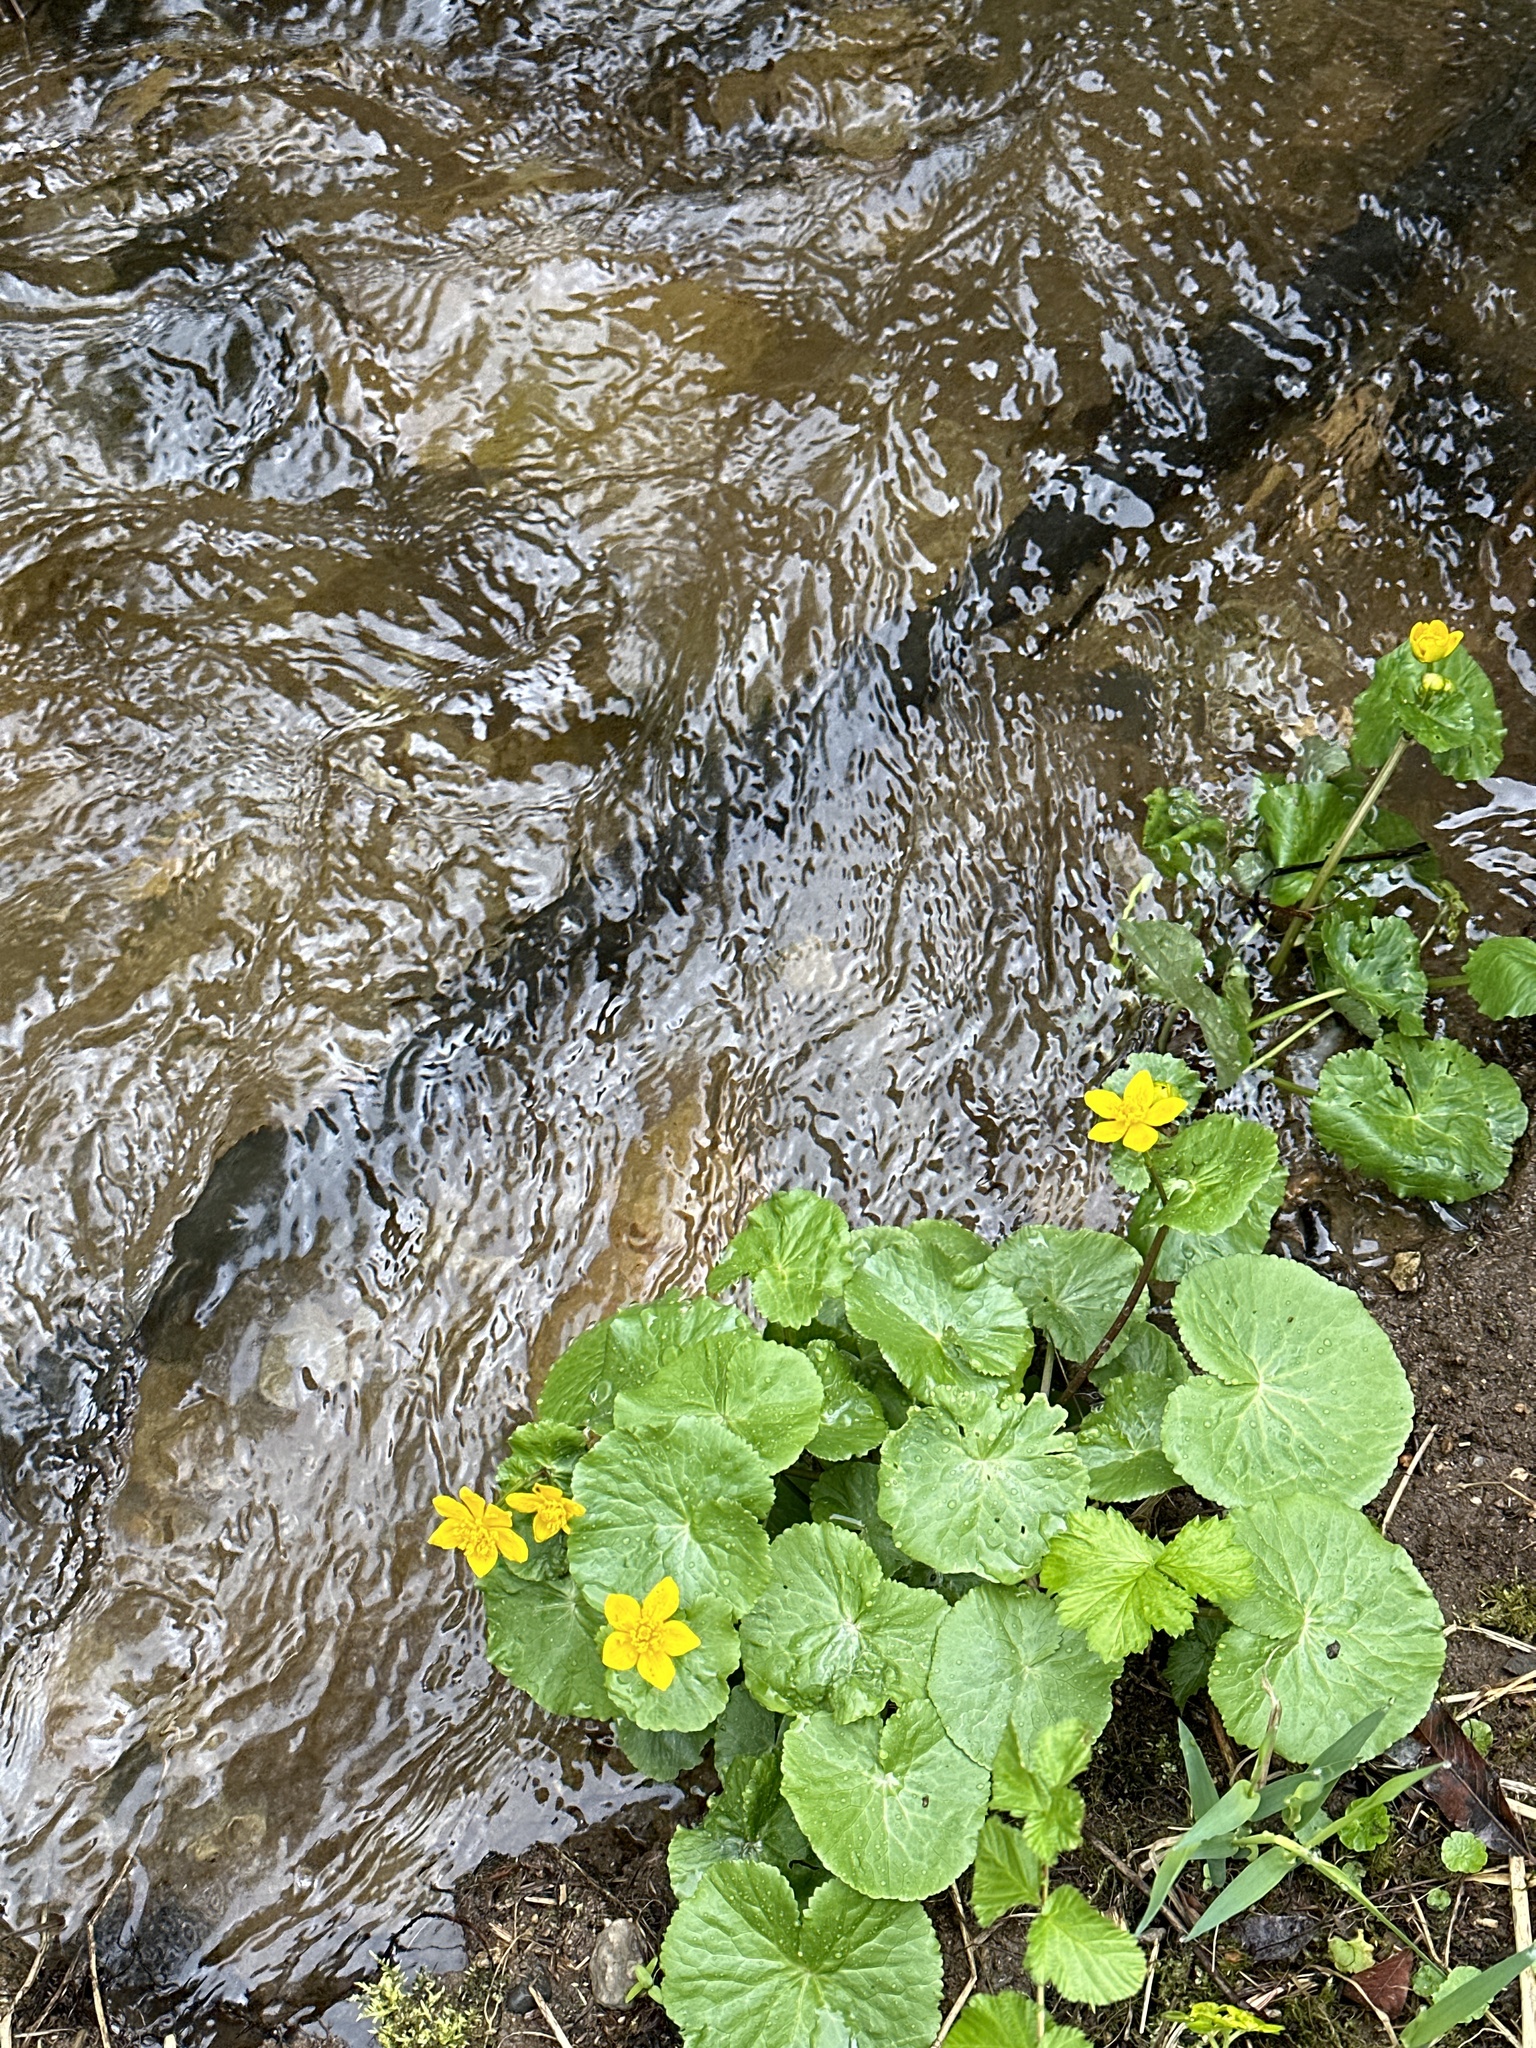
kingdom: Plantae
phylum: Tracheophyta
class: Magnoliopsida
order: Ranunculales
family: Ranunculaceae
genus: Caltha
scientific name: Caltha palustris
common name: Marsh marigold
